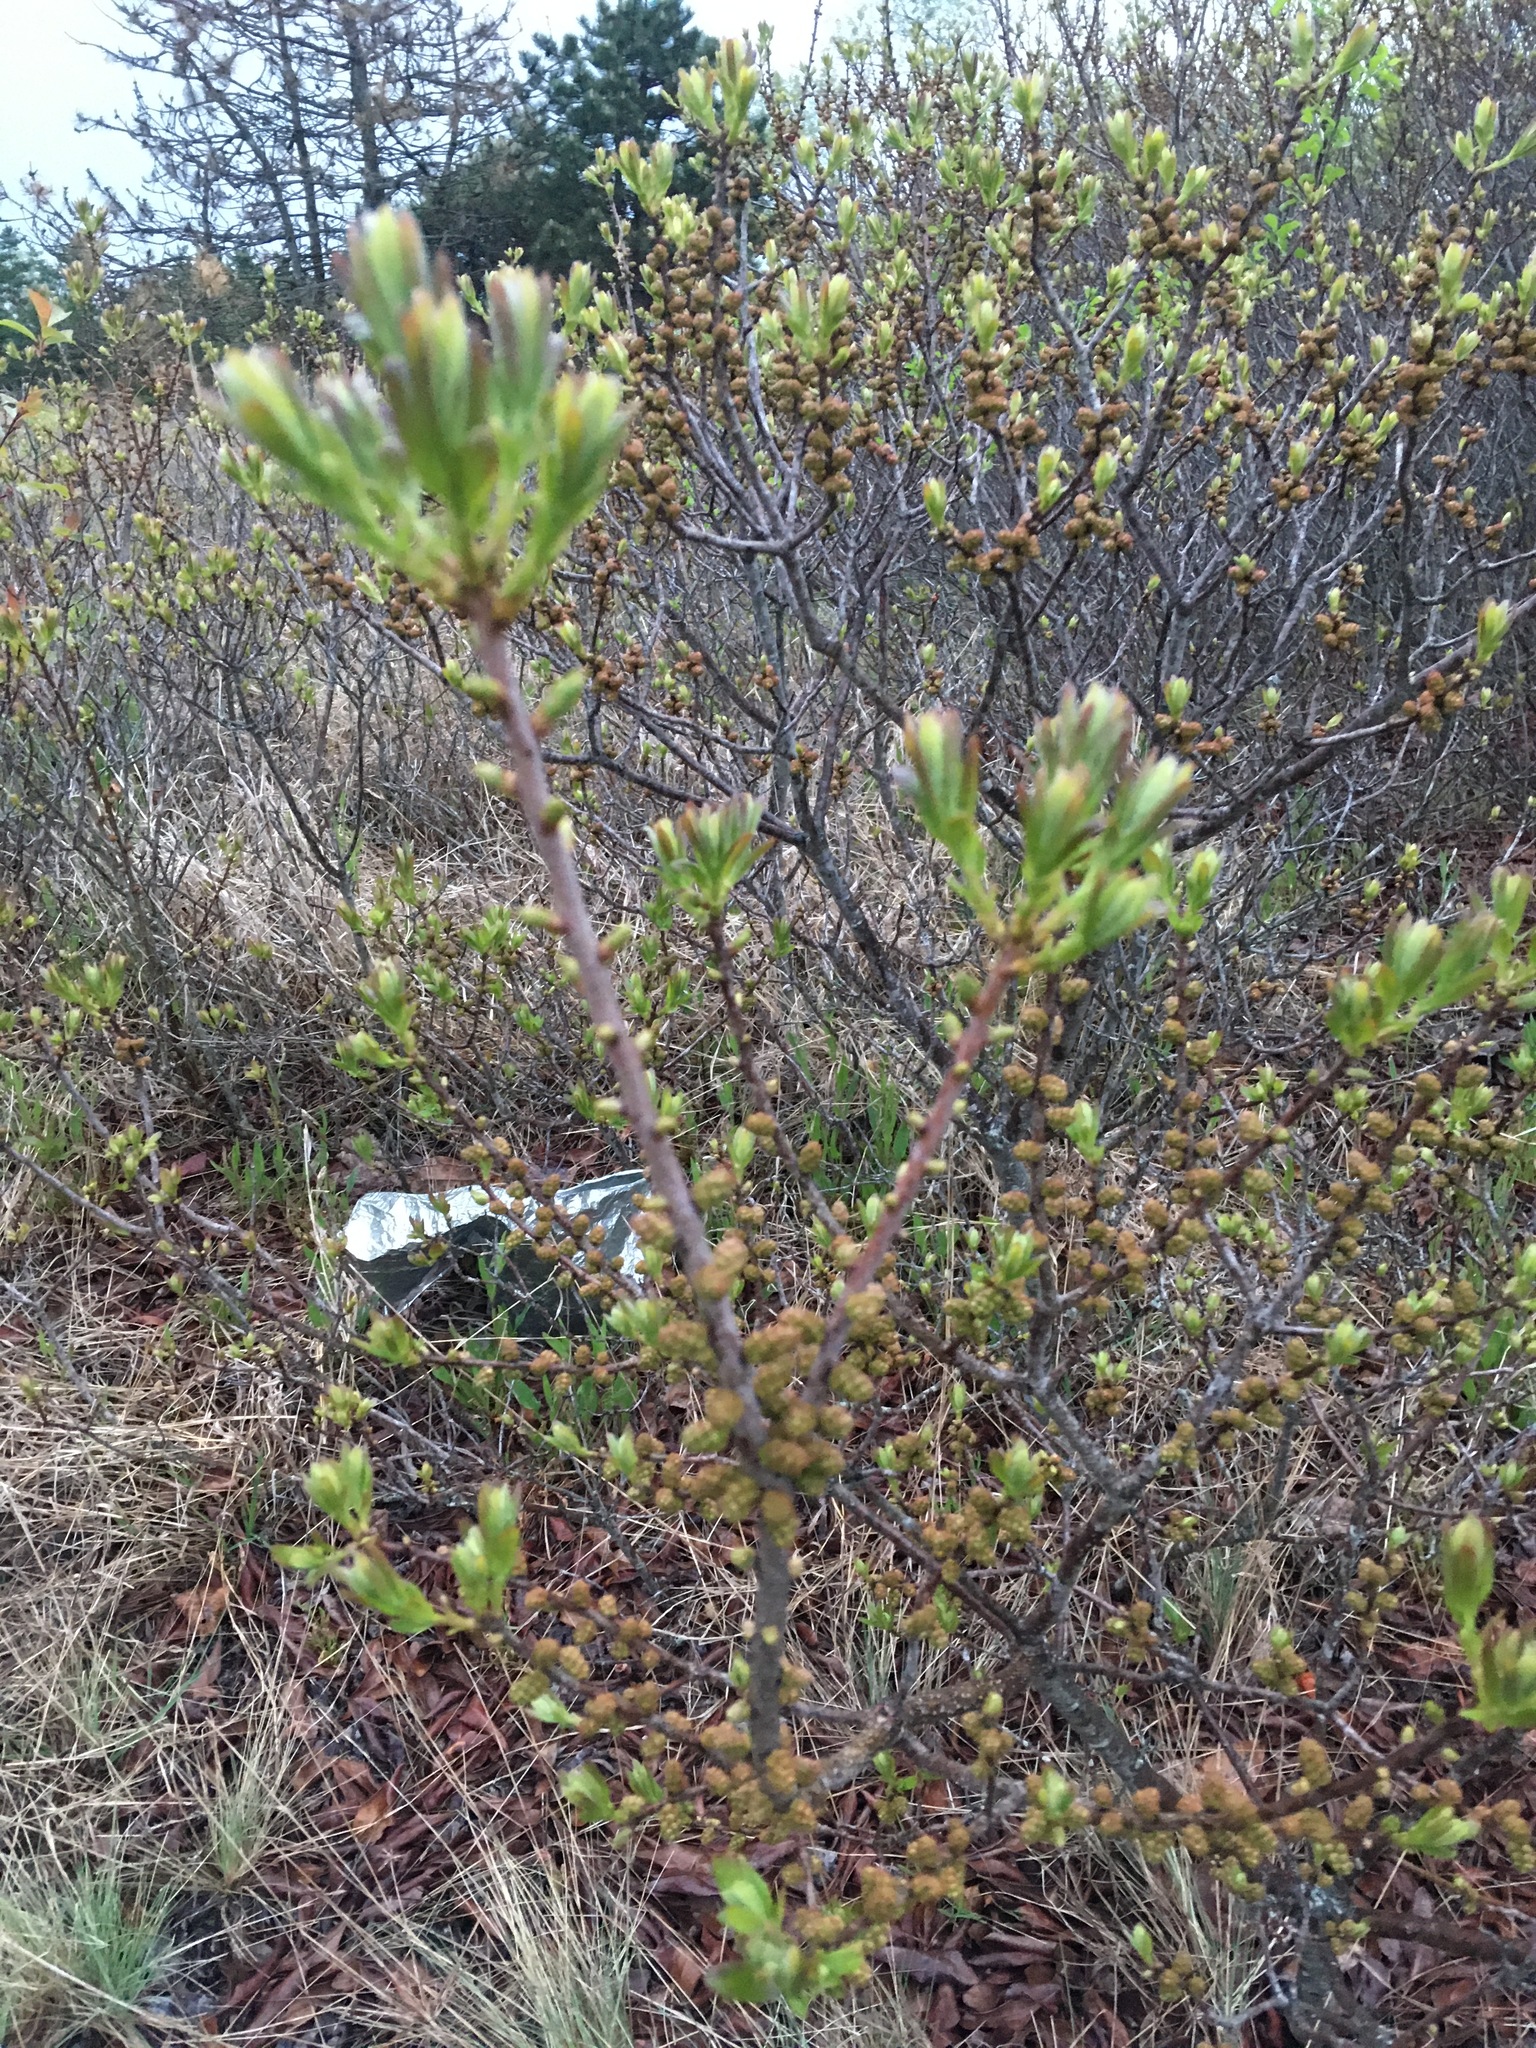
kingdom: Plantae
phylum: Tracheophyta
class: Magnoliopsida
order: Fagales
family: Myricaceae
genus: Morella
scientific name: Morella pensylvanica
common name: Northern bayberry
